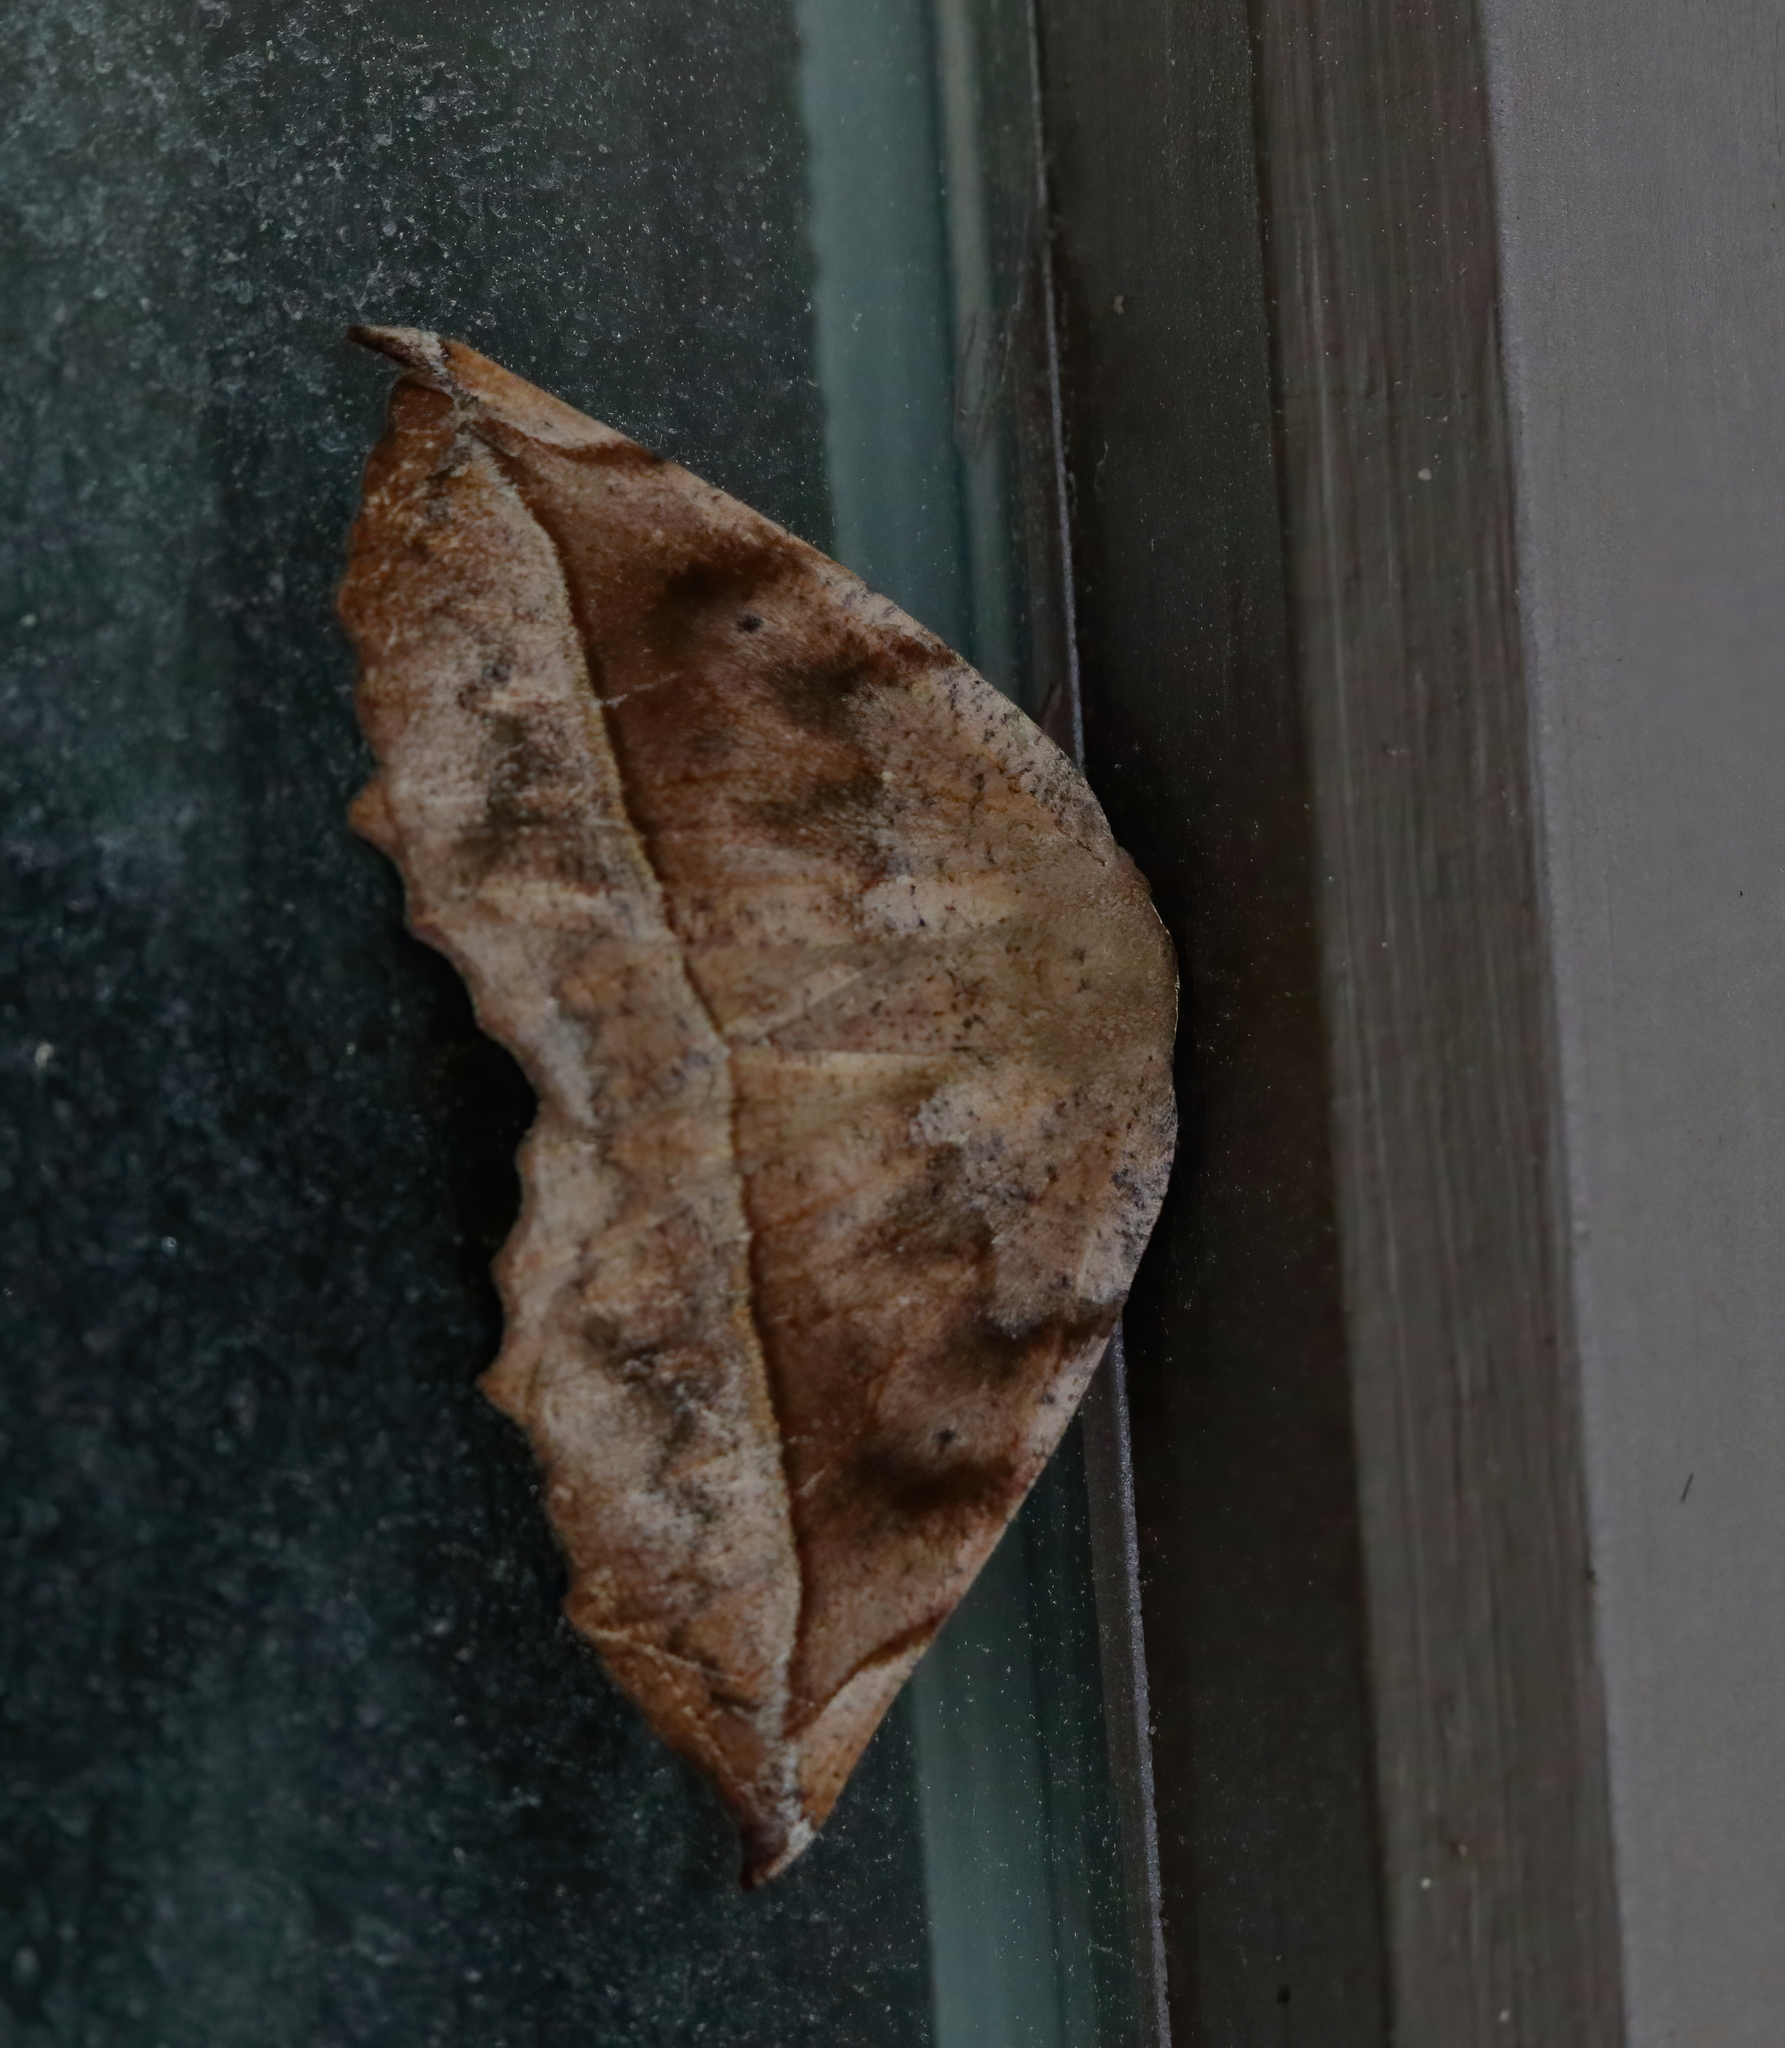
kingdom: Animalia
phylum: Arthropoda
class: Insecta
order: Lepidoptera
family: Geometridae
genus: Eutrapela
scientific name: Eutrapela clemataria
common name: Curved-toothed geometer
